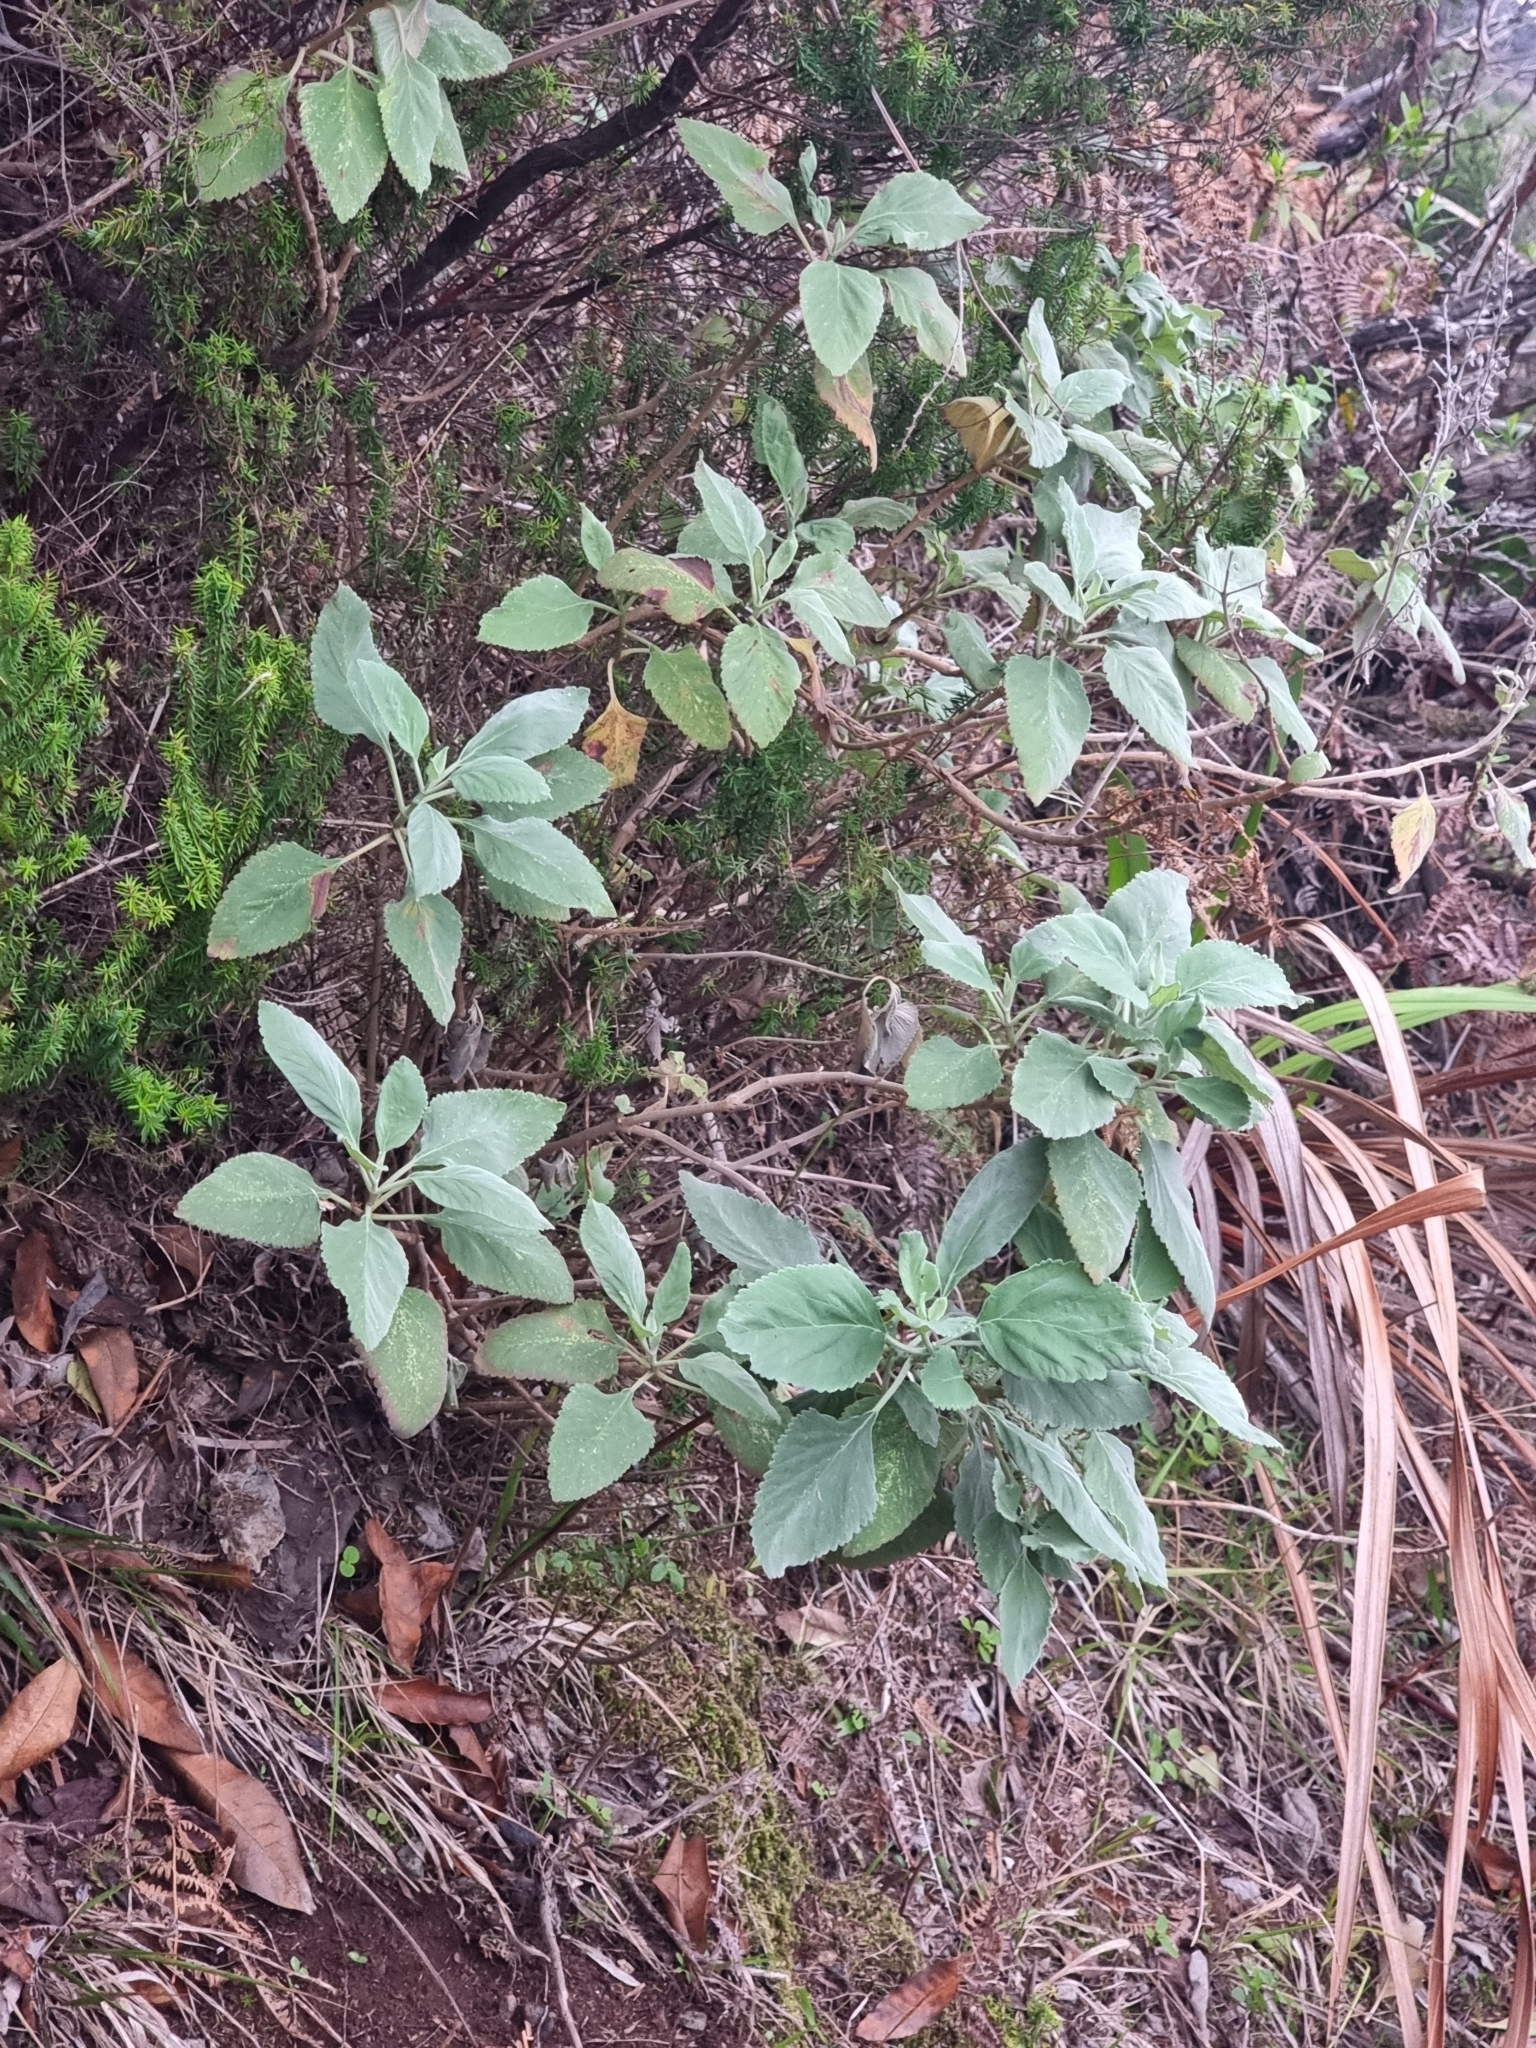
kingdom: Plantae
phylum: Tracheophyta
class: Magnoliopsida
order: Lamiales
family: Lamiaceae
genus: Teucrium
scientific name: Teucrium betonicum
